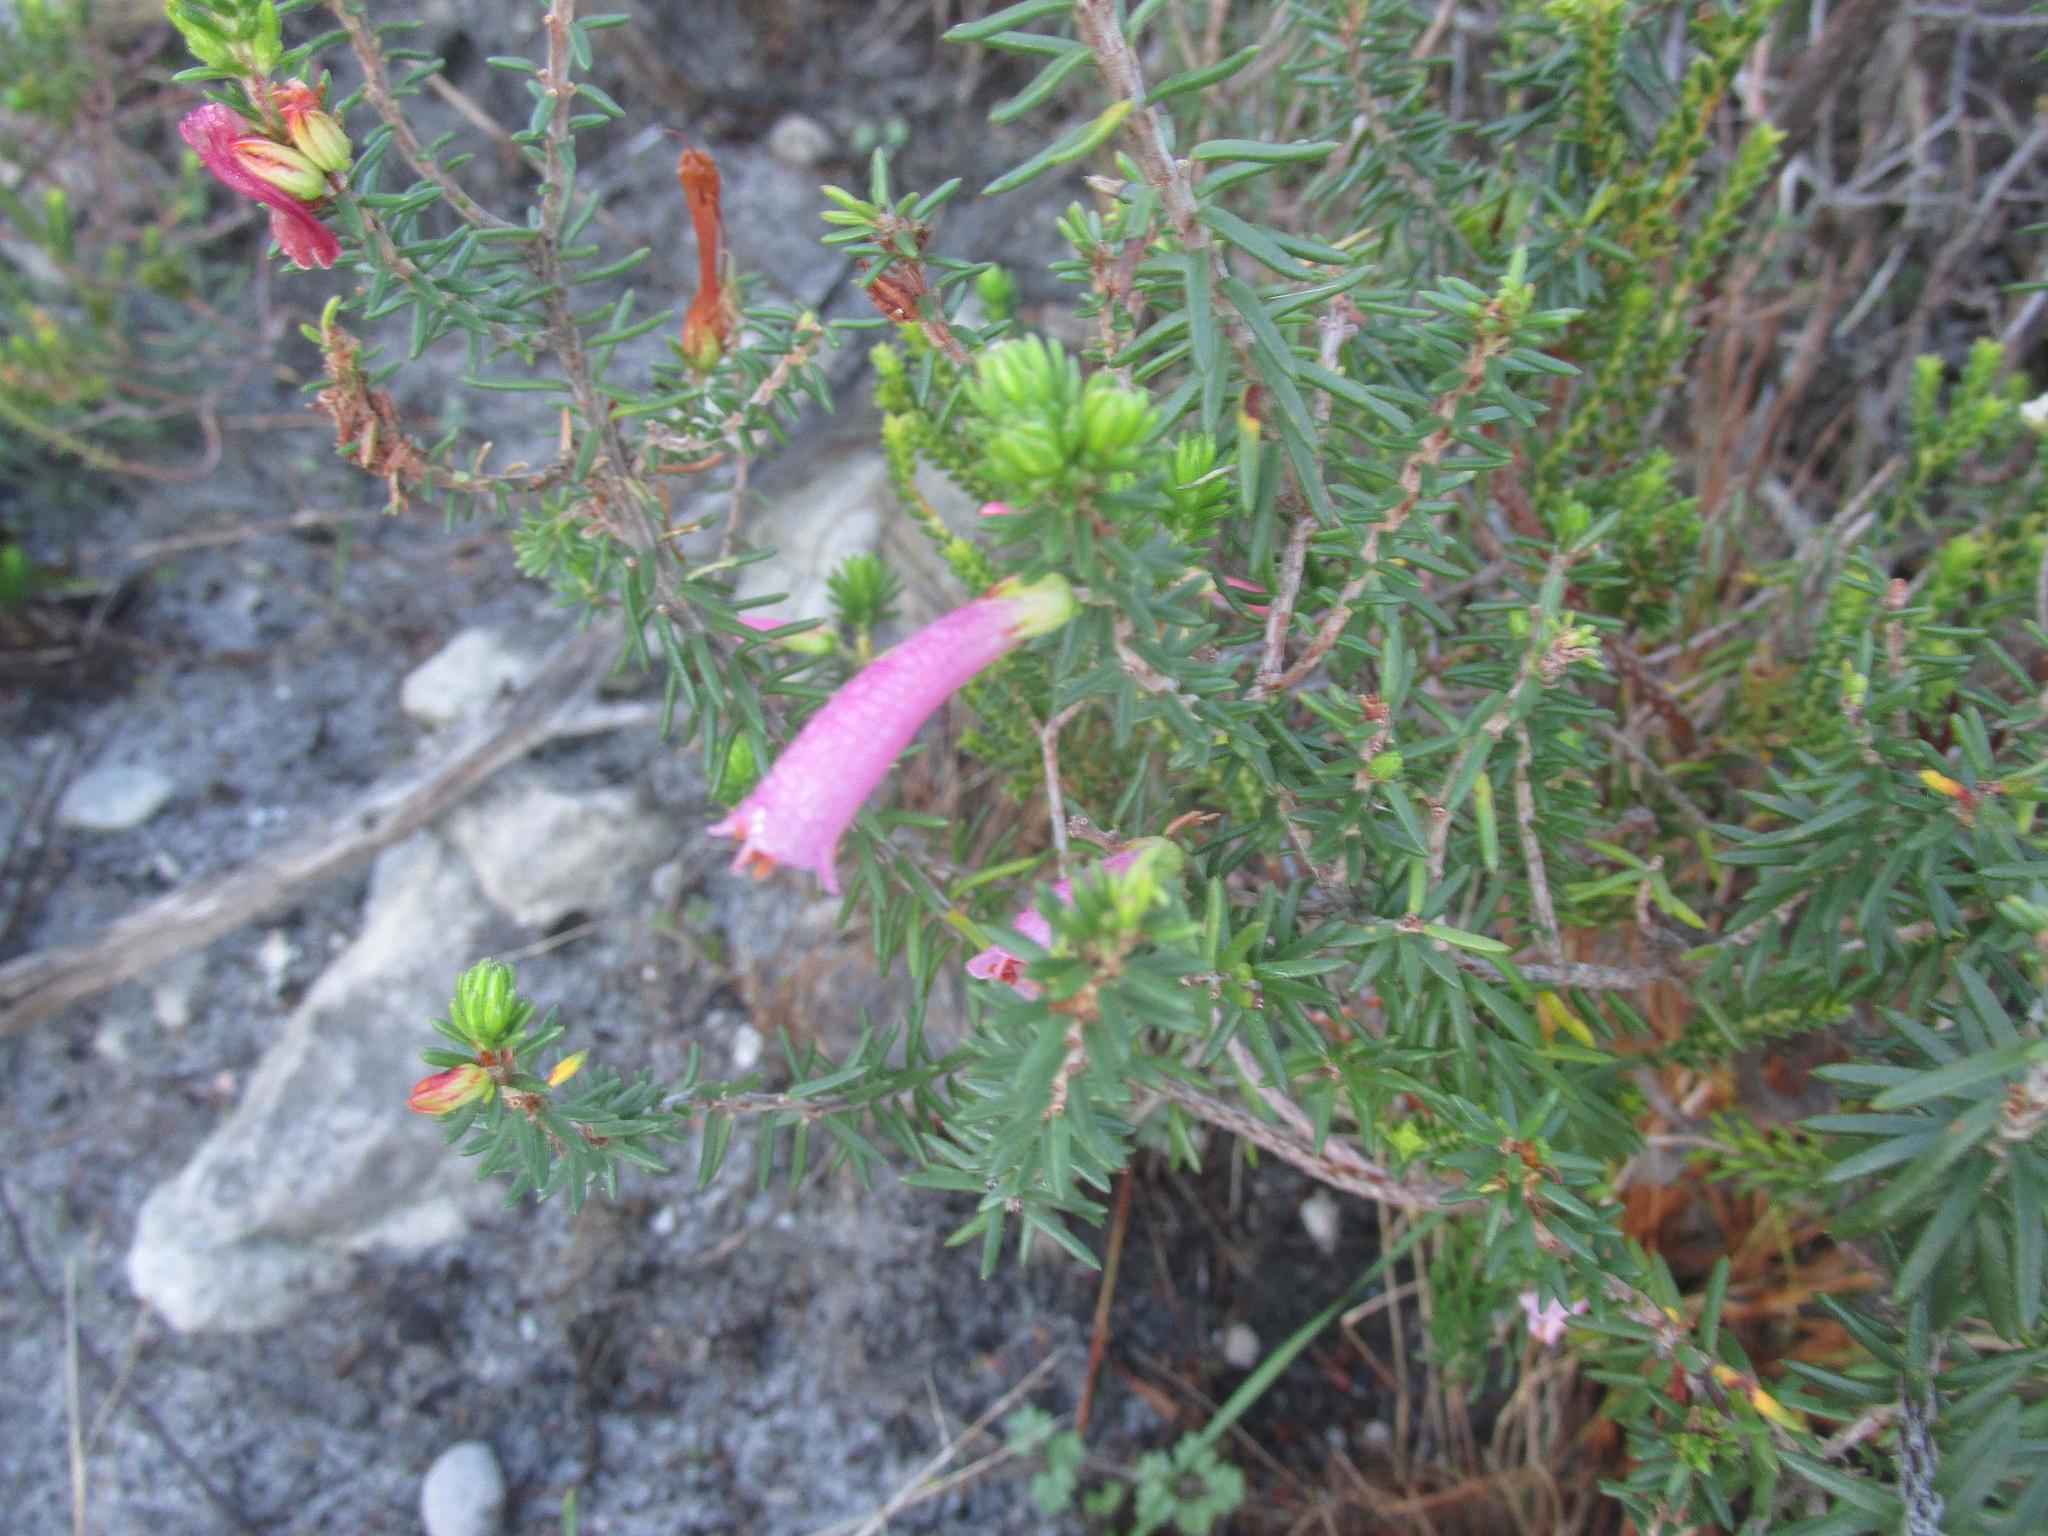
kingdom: Plantae
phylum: Tracheophyta
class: Magnoliopsida
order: Ericales
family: Ericaceae
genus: Erica
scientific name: Erica abietina
